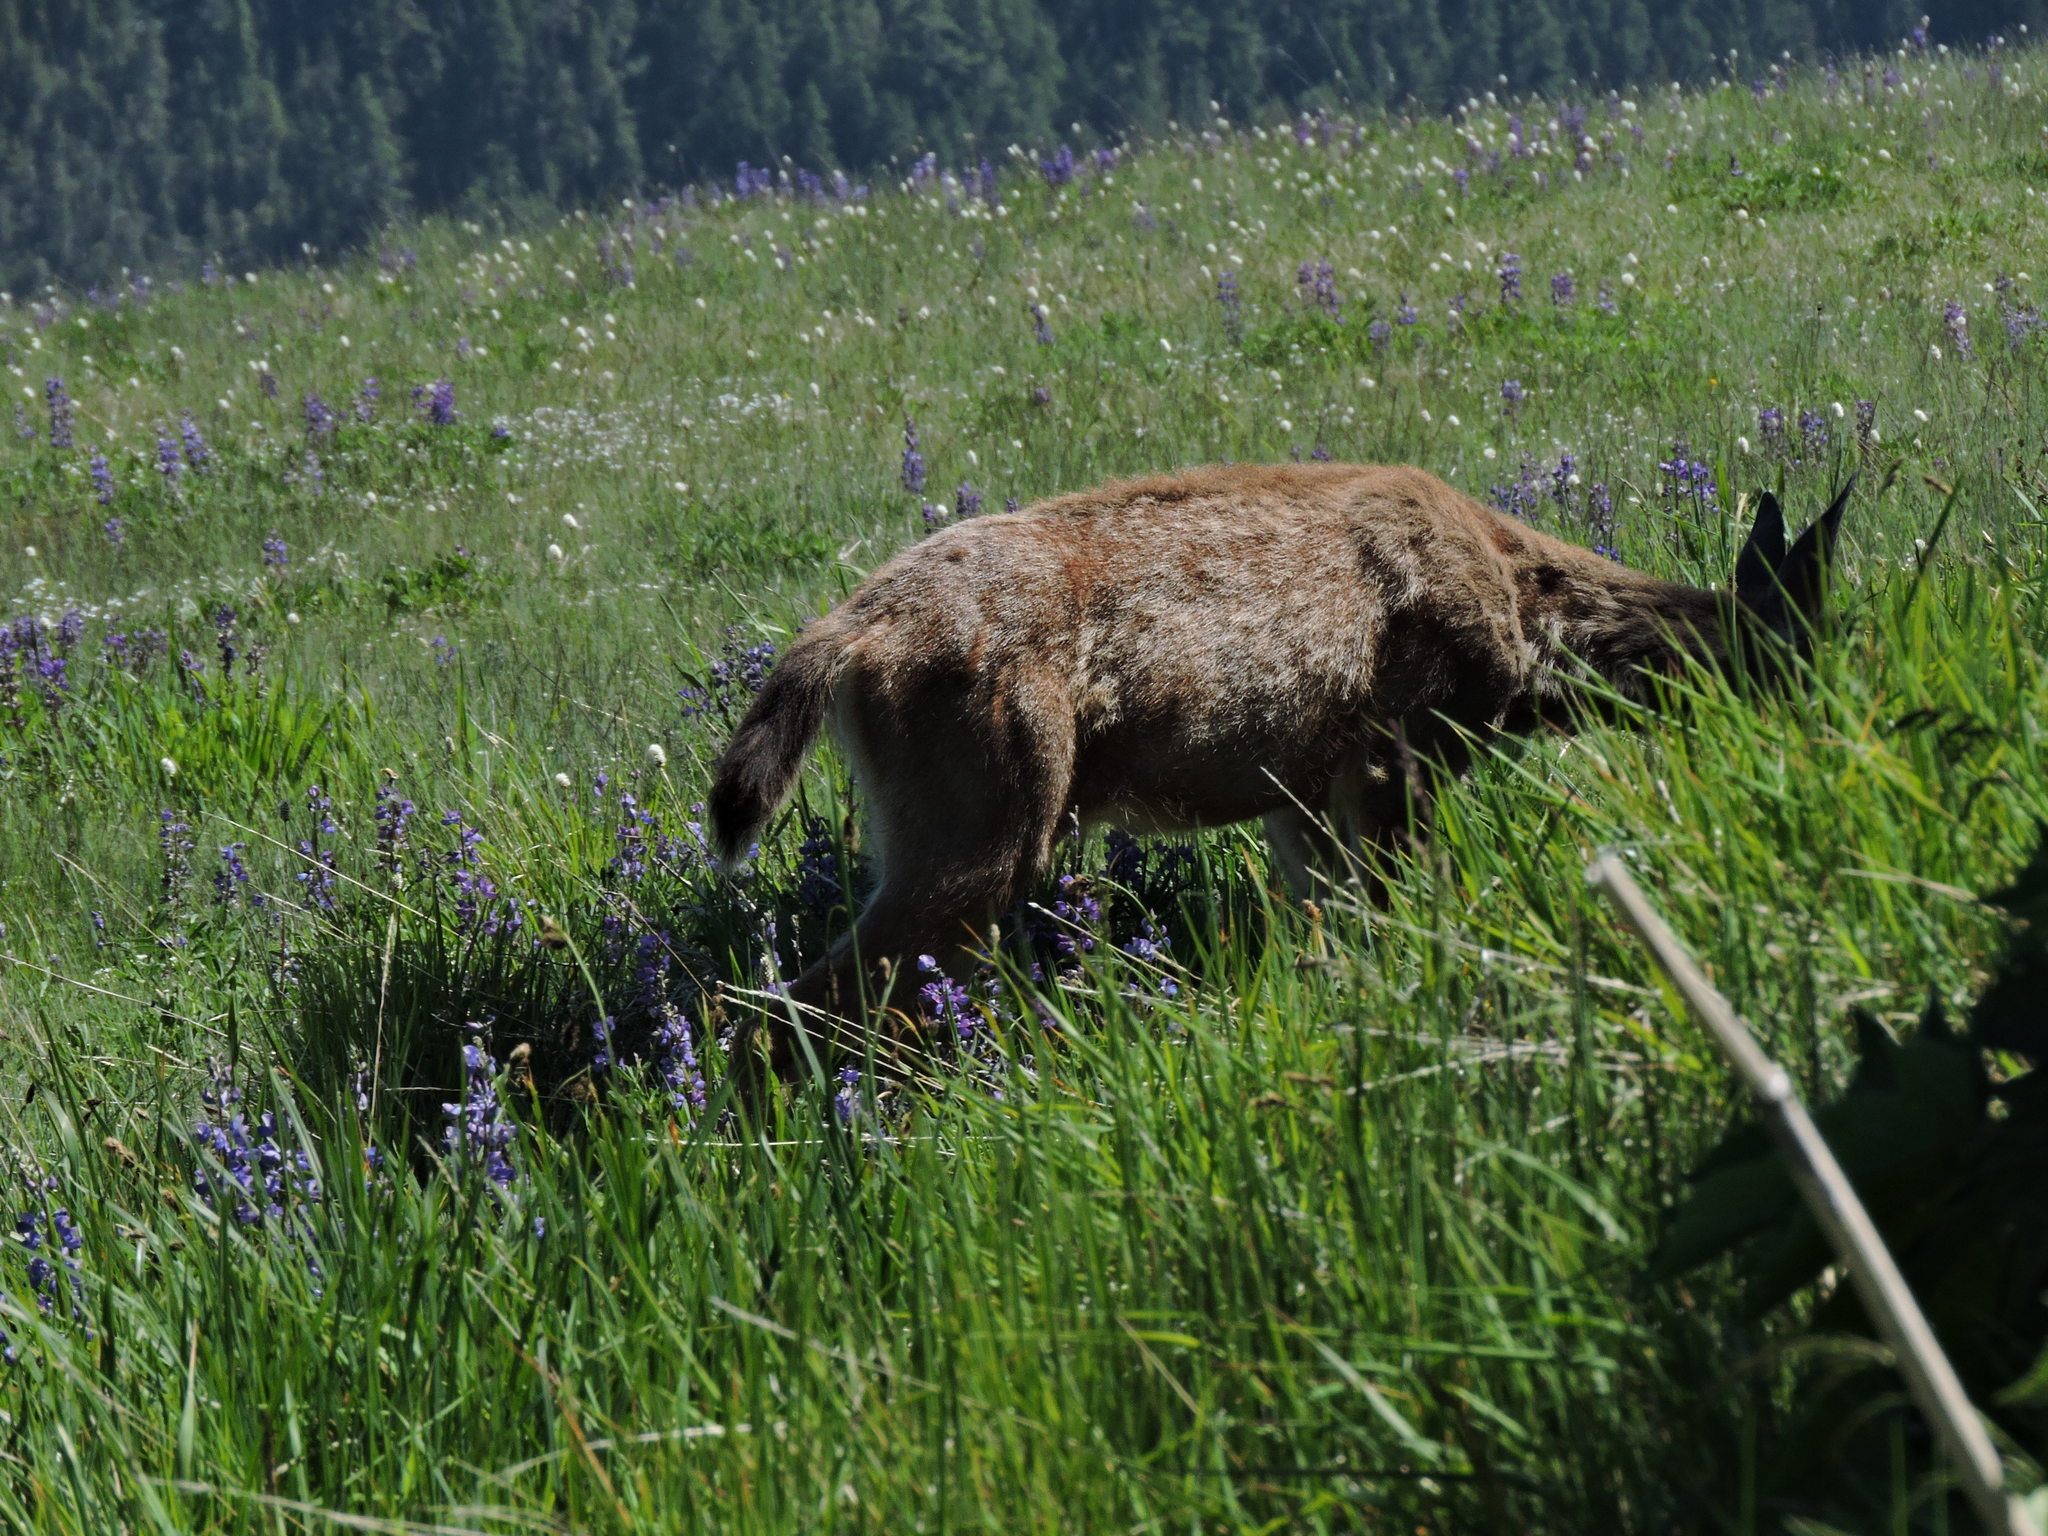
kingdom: Animalia
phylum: Chordata
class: Mammalia
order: Artiodactyla
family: Cervidae
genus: Odocoileus
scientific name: Odocoileus hemionus
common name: Mule deer
